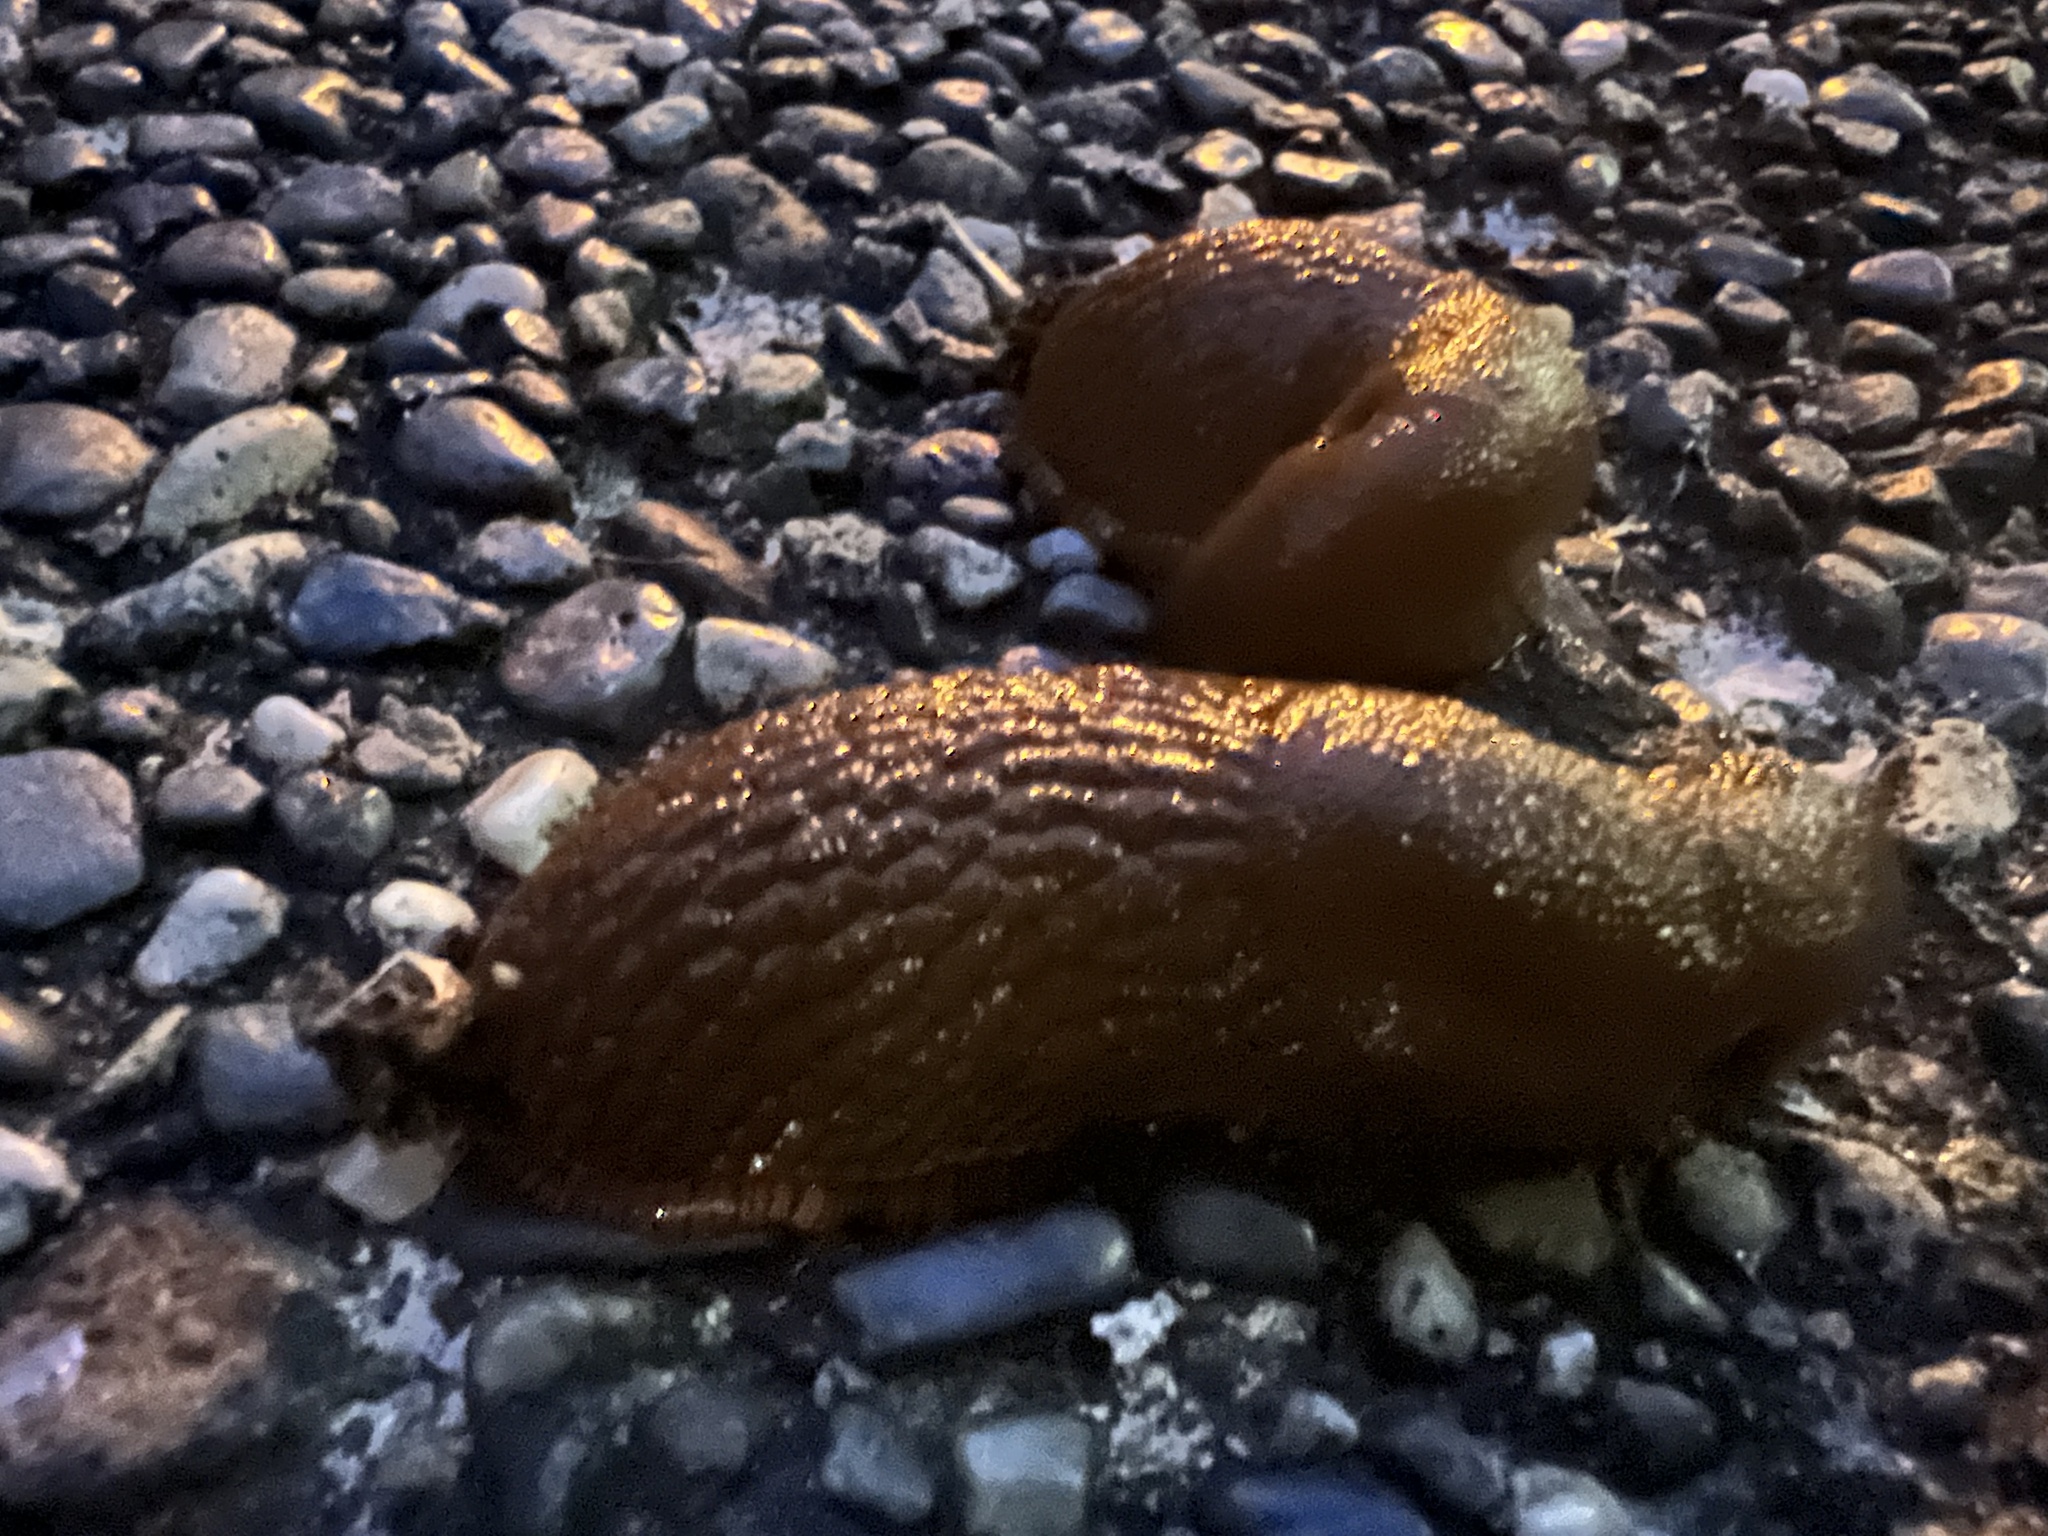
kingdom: Animalia
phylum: Mollusca
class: Gastropoda
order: Stylommatophora
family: Arionidae
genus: Arion
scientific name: Arion
